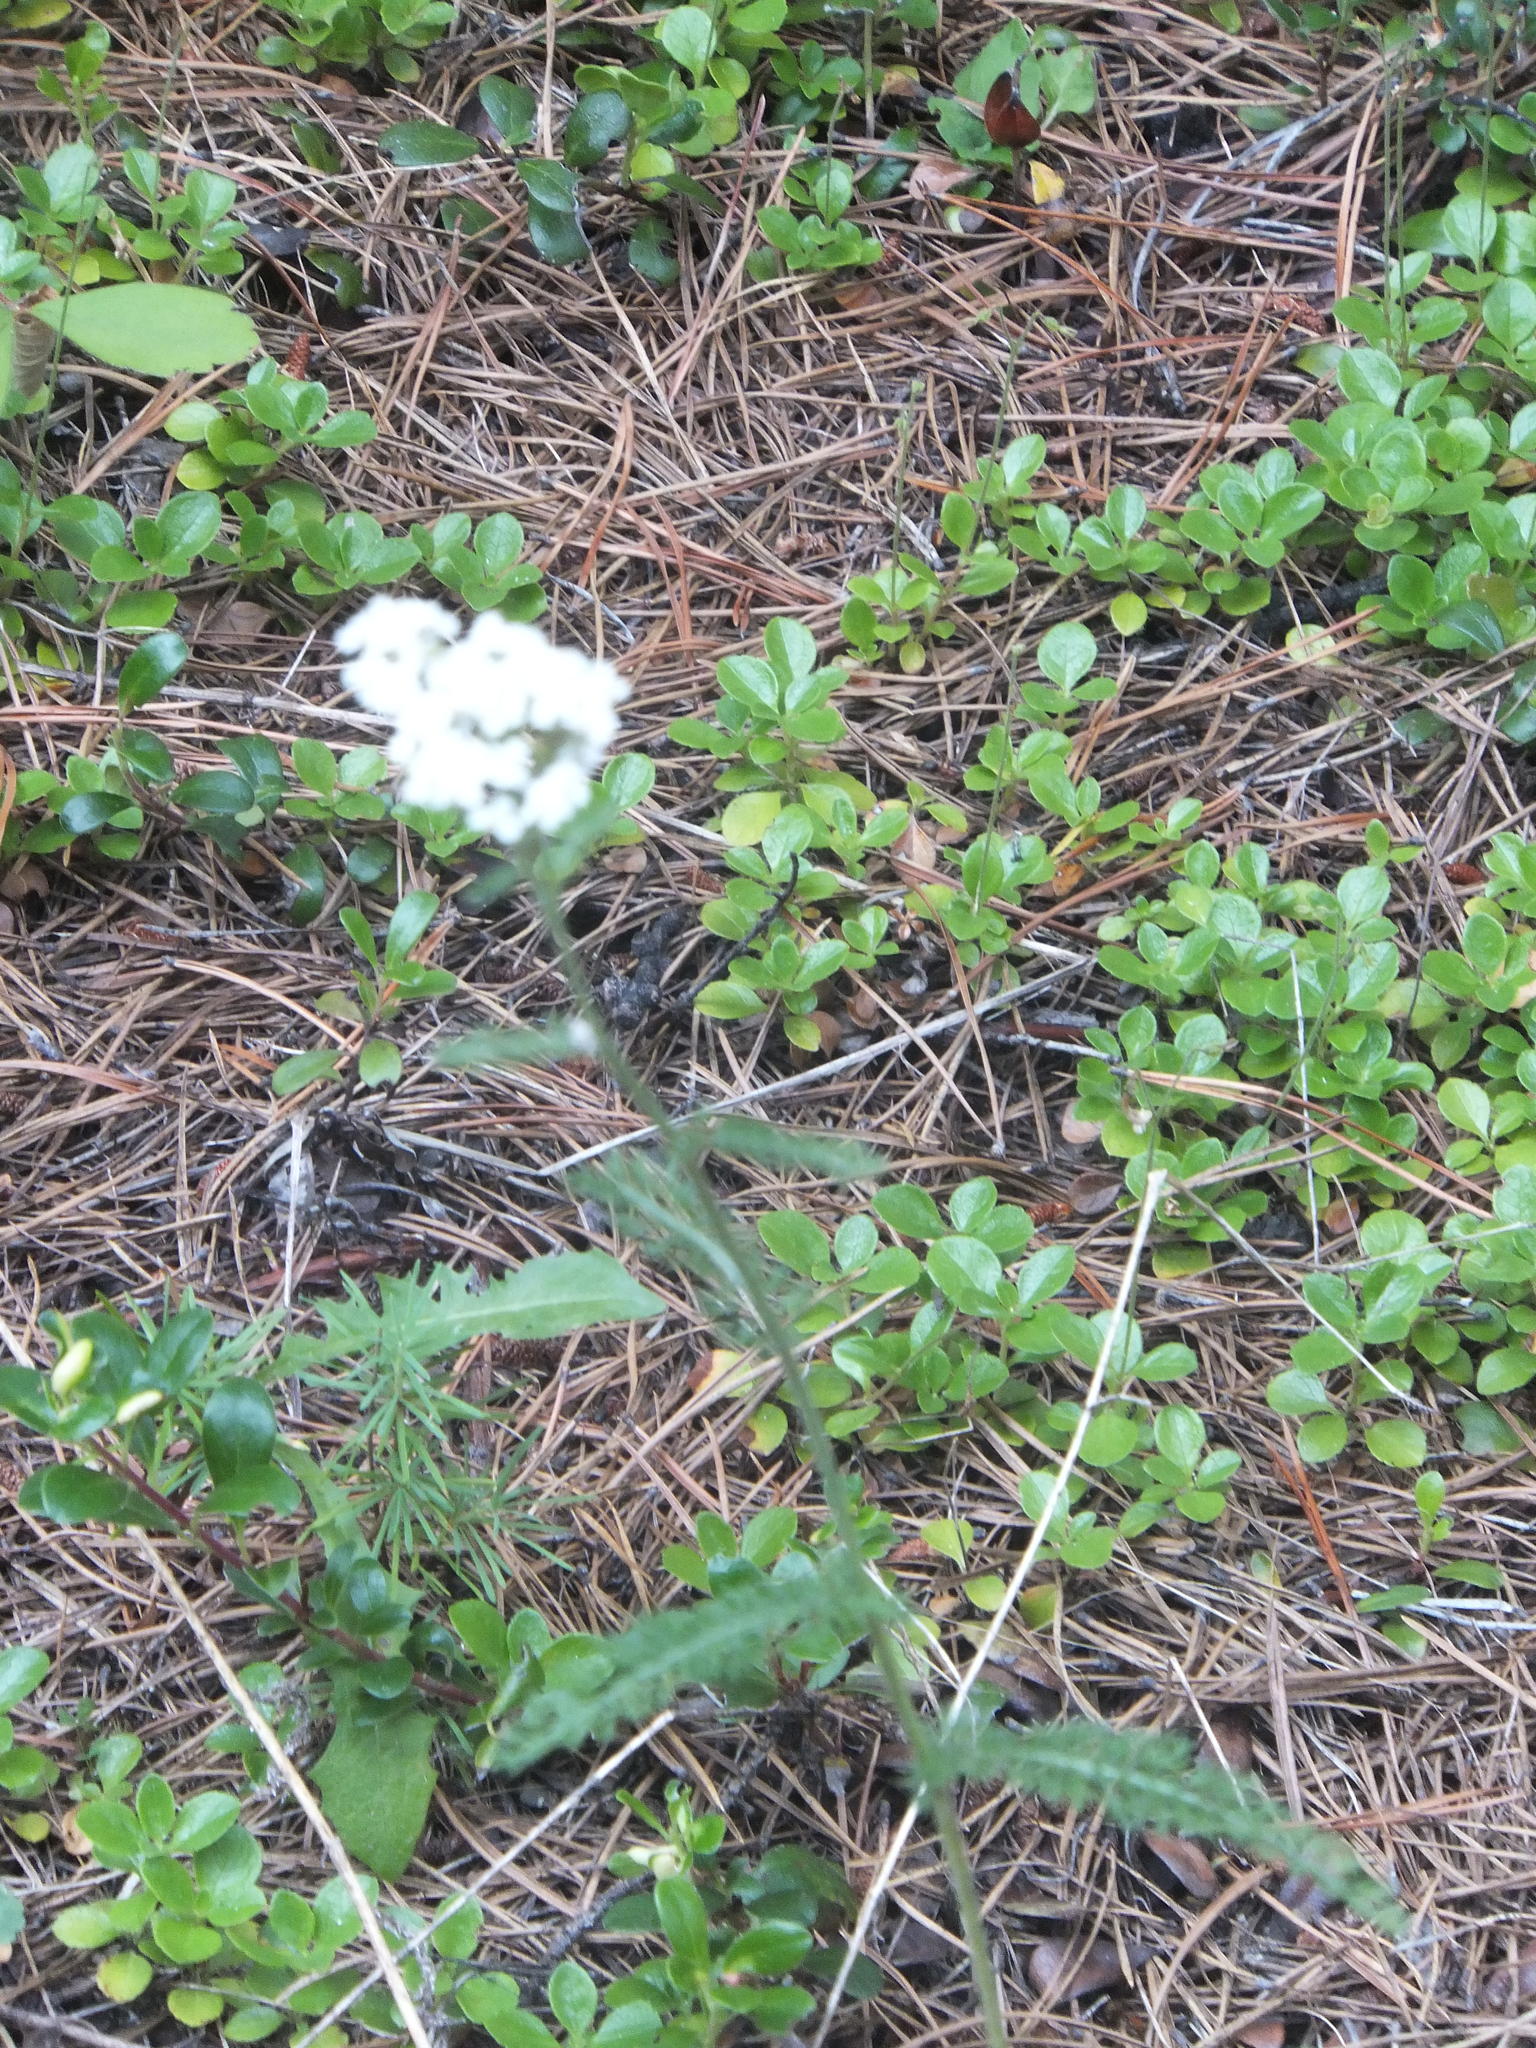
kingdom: Plantae
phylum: Tracheophyta
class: Magnoliopsida
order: Asterales
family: Asteraceae
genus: Achillea
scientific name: Achillea millefolium
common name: Yarrow
